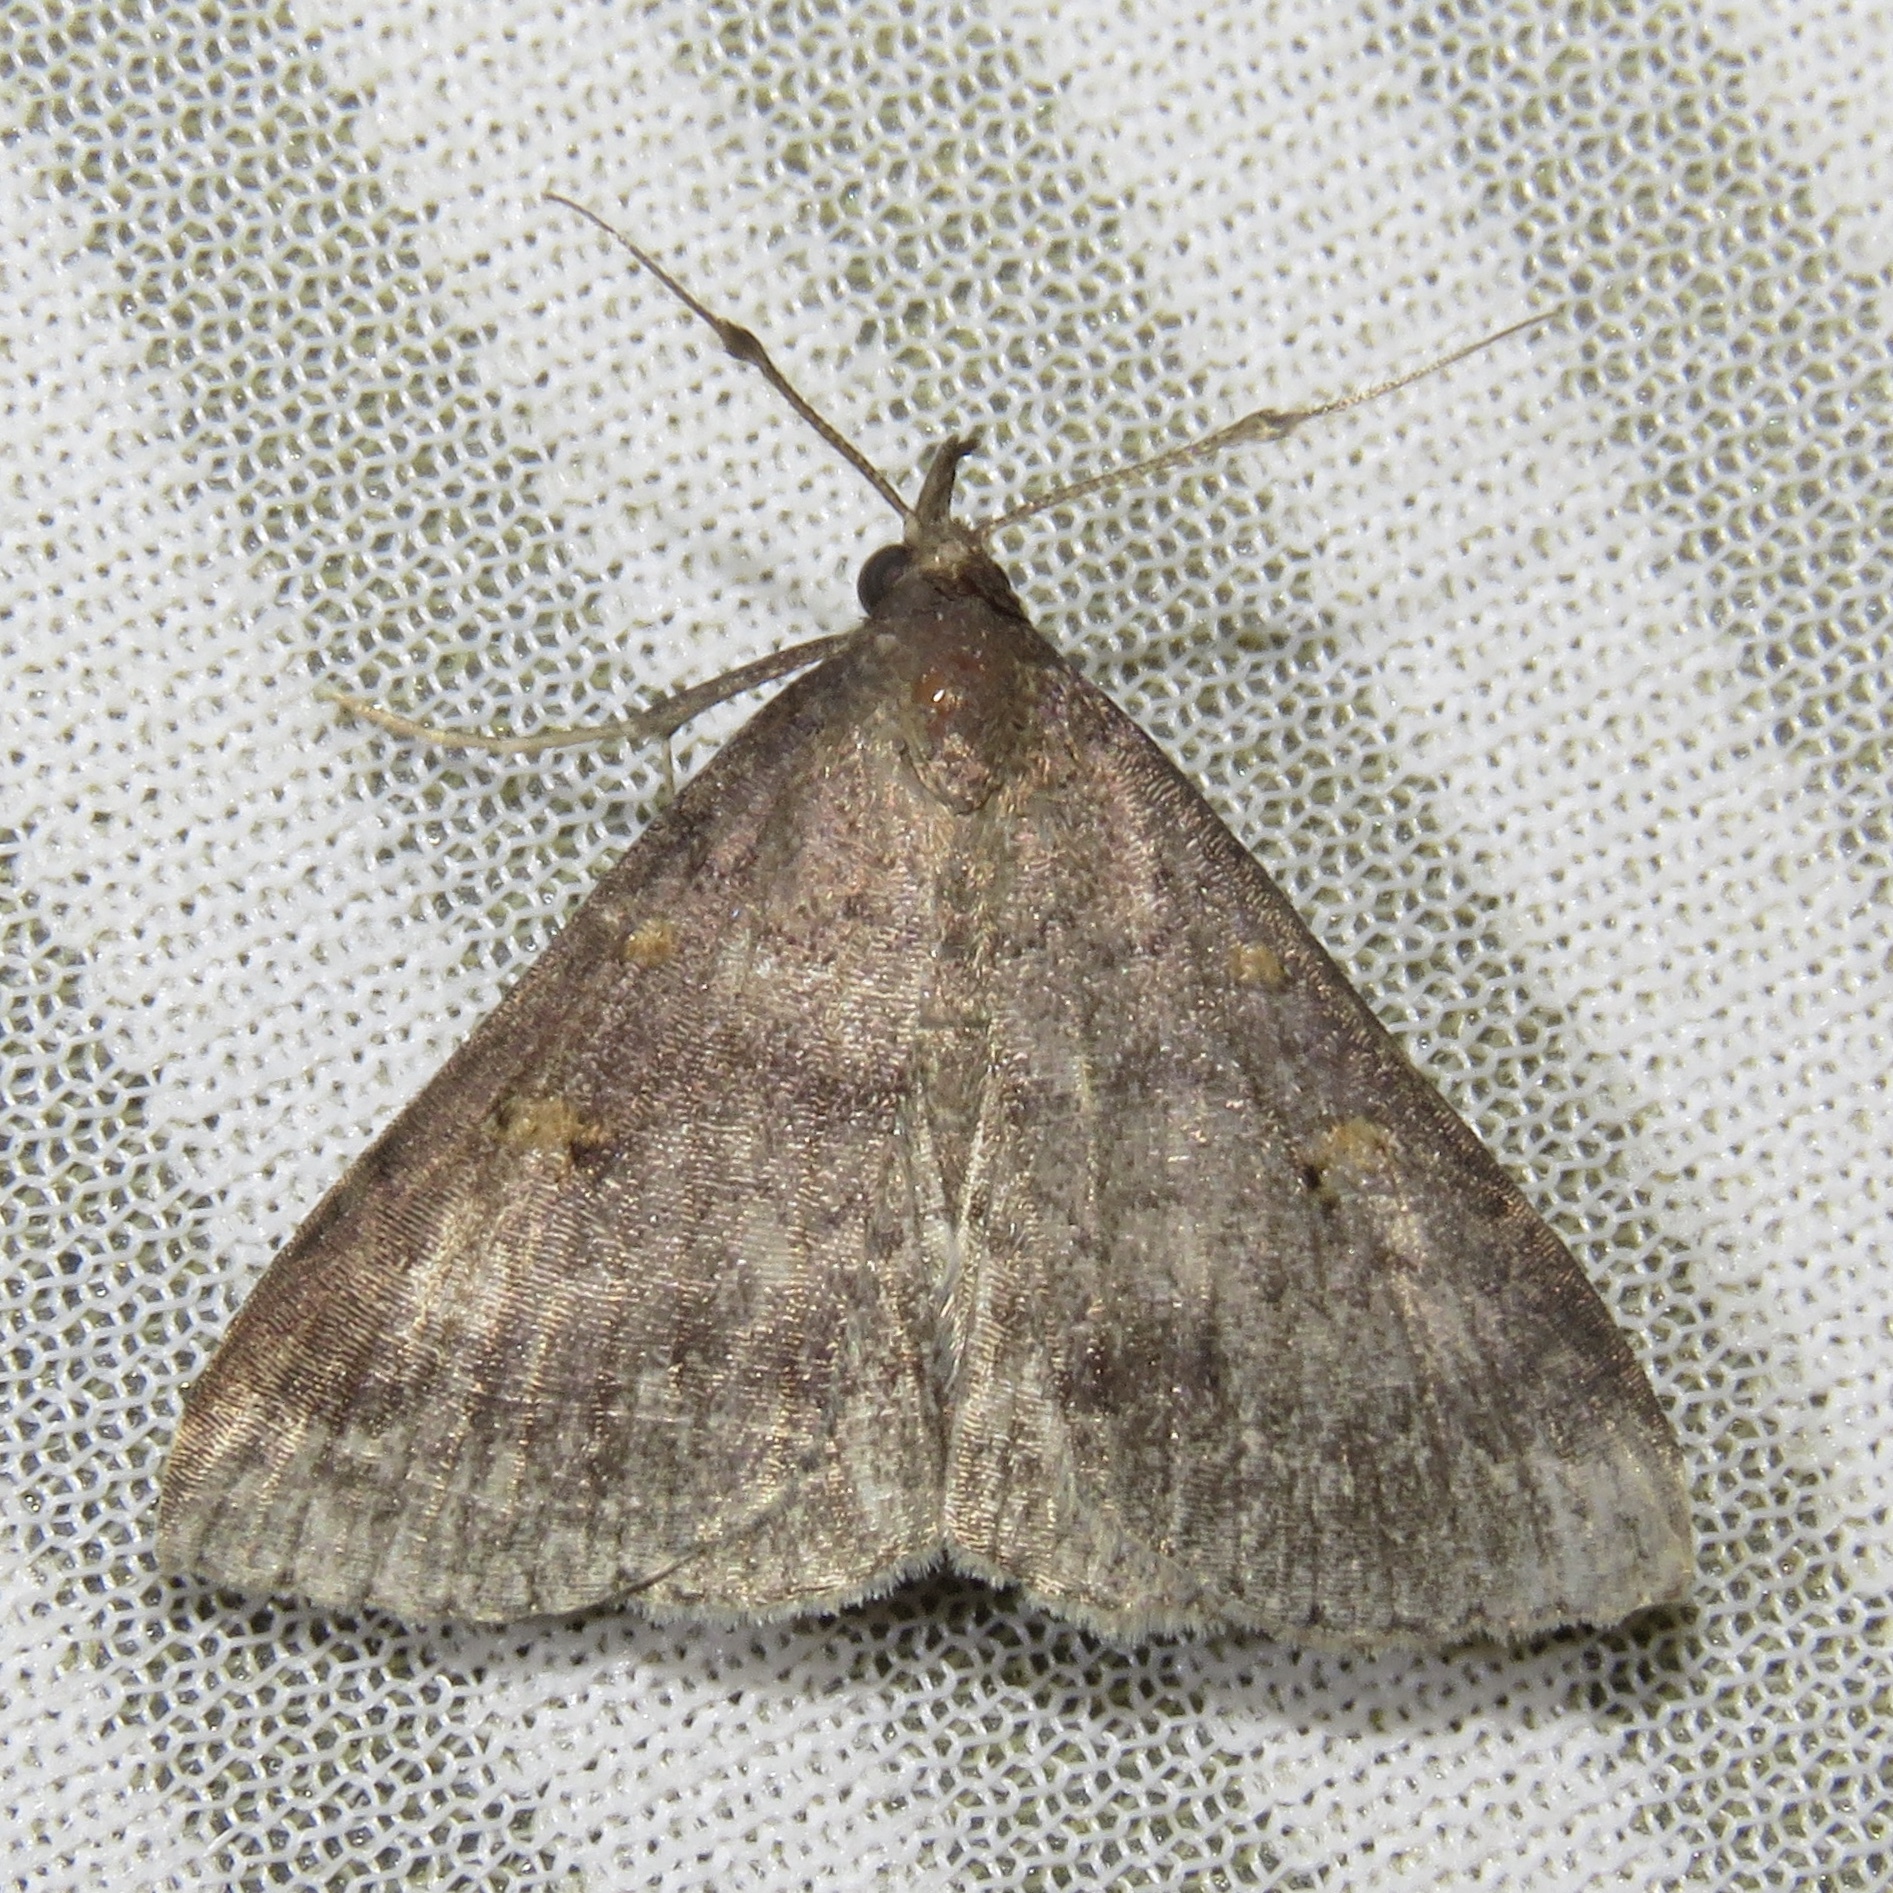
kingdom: Animalia
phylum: Arthropoda
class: Insecta
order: Lepidoptera
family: Erebidae
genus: Renia
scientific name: Renia sobrialis
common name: Sober renia moth
